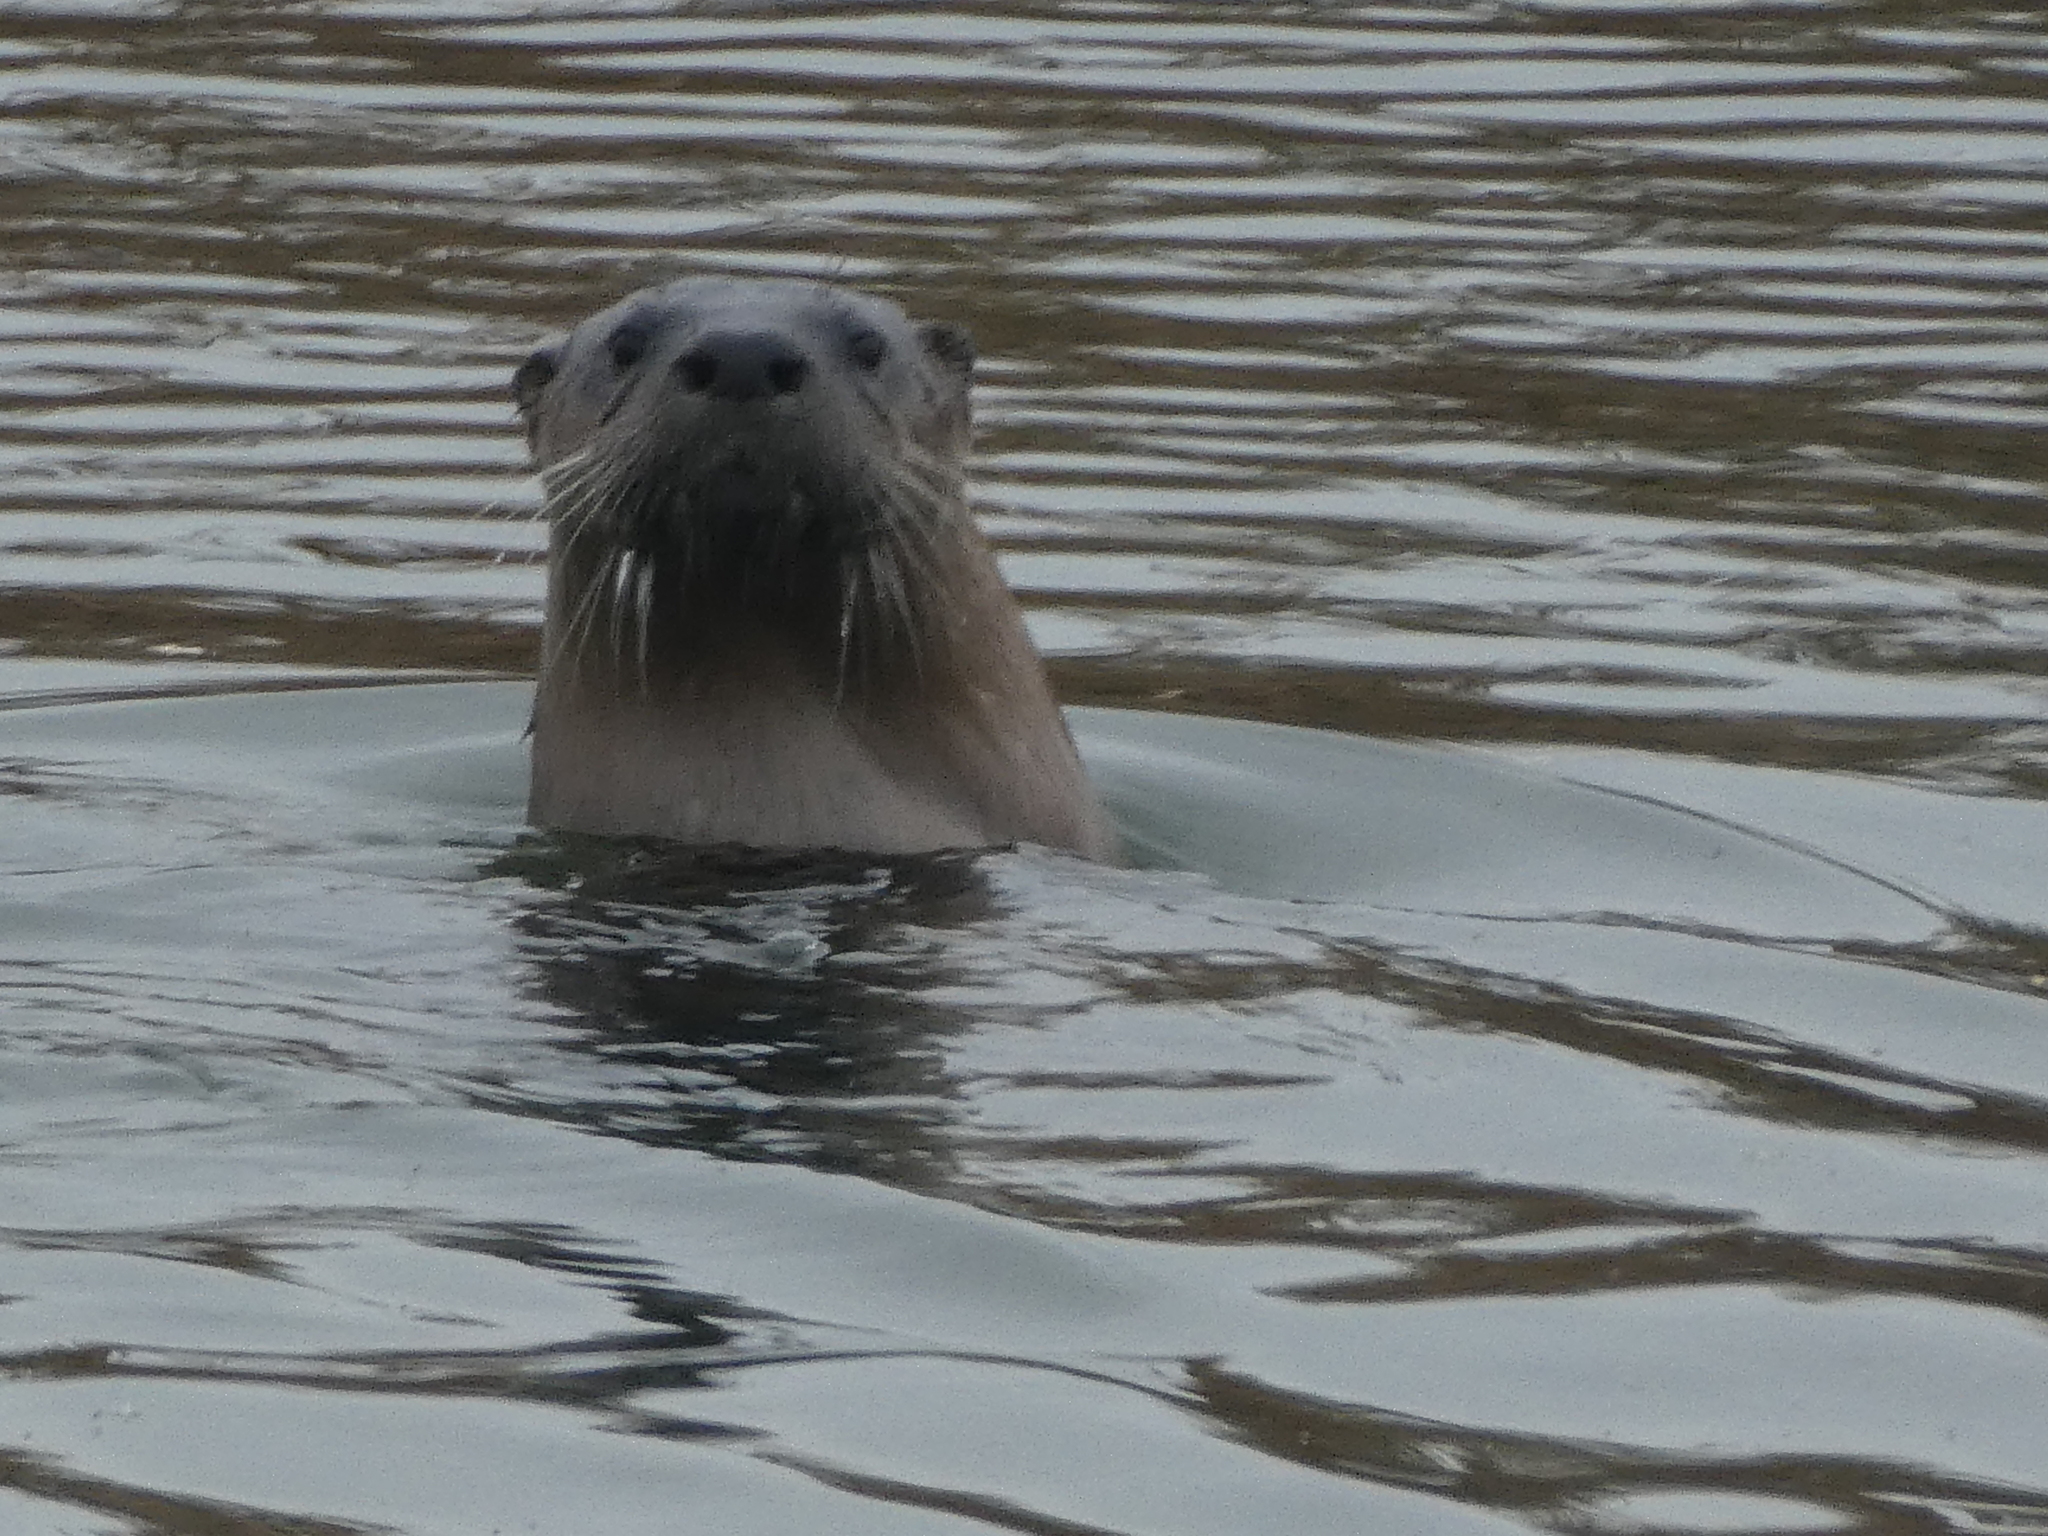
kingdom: Animalia
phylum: Chordata
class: Mammalia
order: Carnivora
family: Mustelidae
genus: Lontra
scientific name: Lontra canadensis
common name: North american river otter
